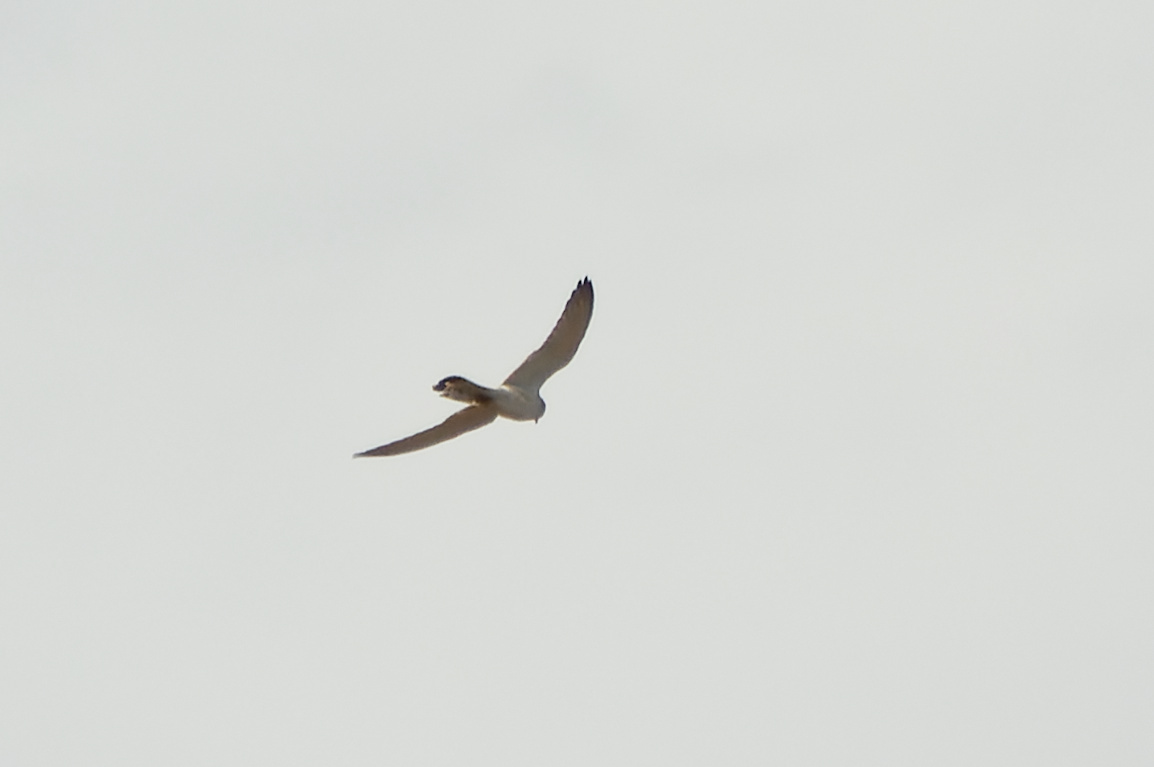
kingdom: Animalia
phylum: Chordata
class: Aves
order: Falconiformes
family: Falconidae
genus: Falco
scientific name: Falco cenchroides
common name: Nankeen kestrel
